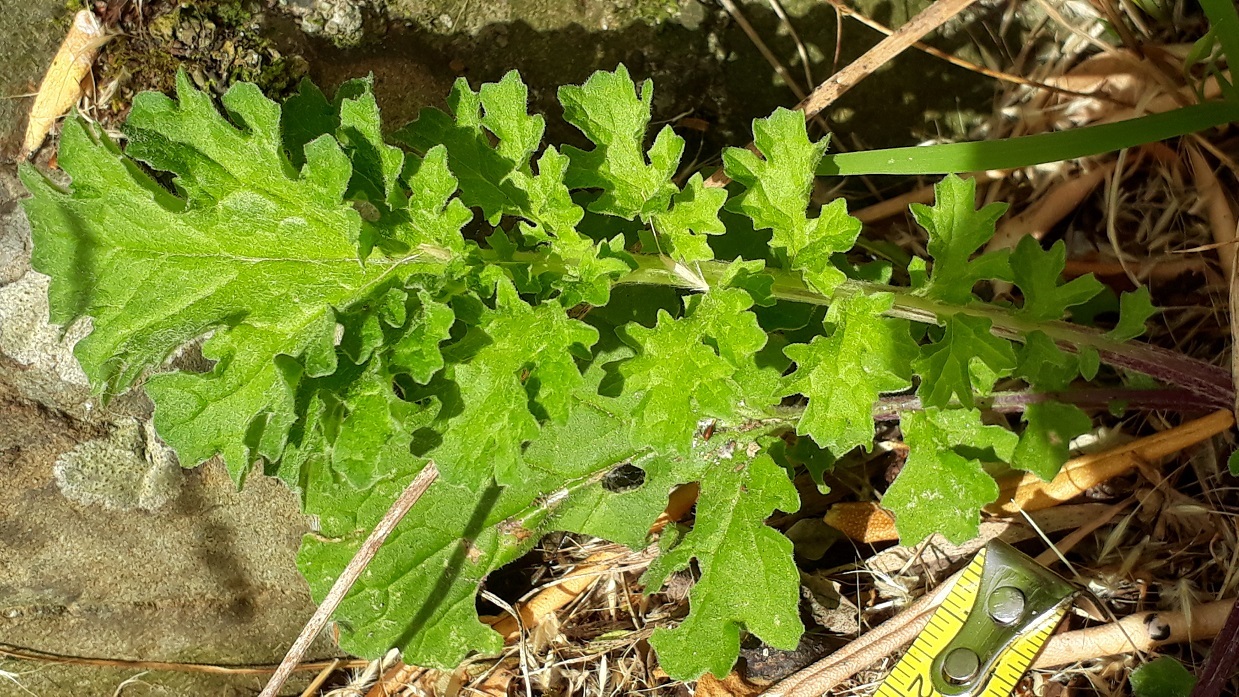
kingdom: Plantae
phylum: Tracheophyta
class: Magnoliopsida
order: Asterales
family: Asteraceae
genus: Jacobaea
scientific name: Jacobaea vulgaris
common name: Stinking willie
